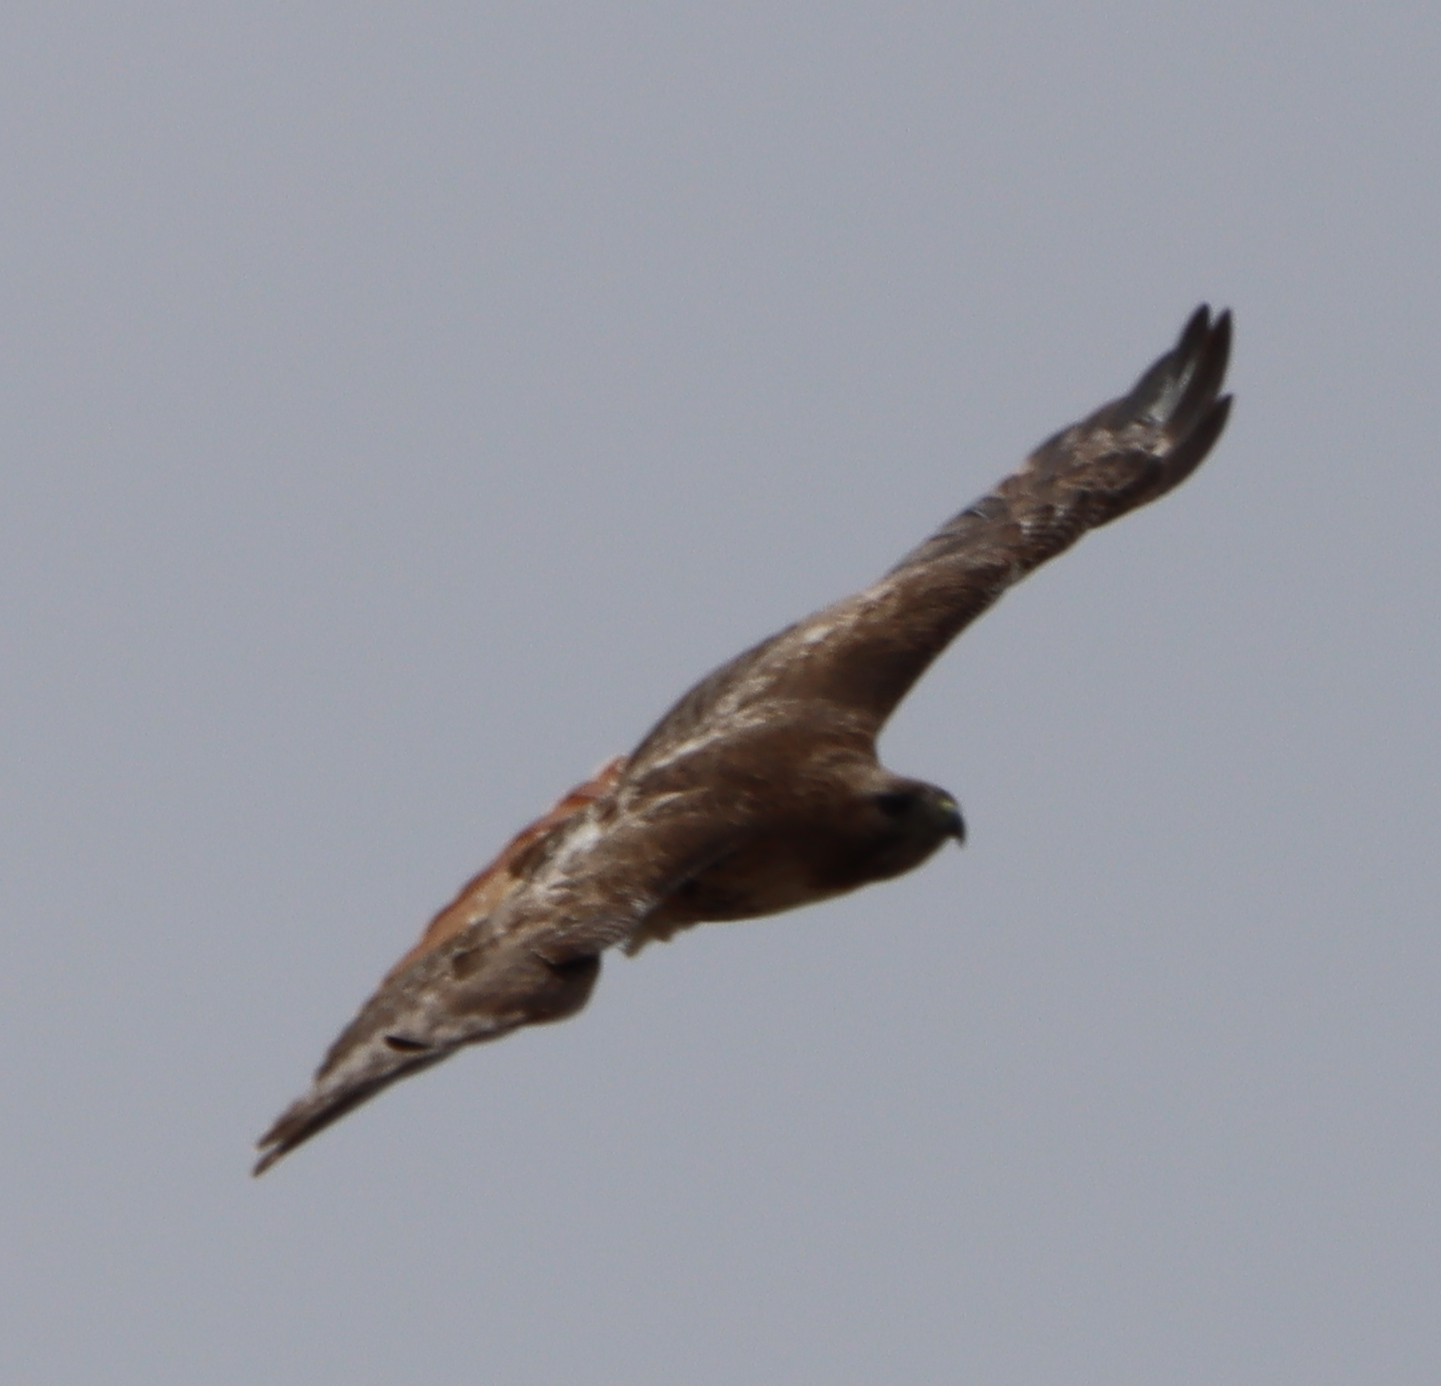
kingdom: Animalia
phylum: Chordata
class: Aves
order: Accipitriformes
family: Accipitridae
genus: Buteo
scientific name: Buteo jamaicensis
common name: Red-tailed hawk
